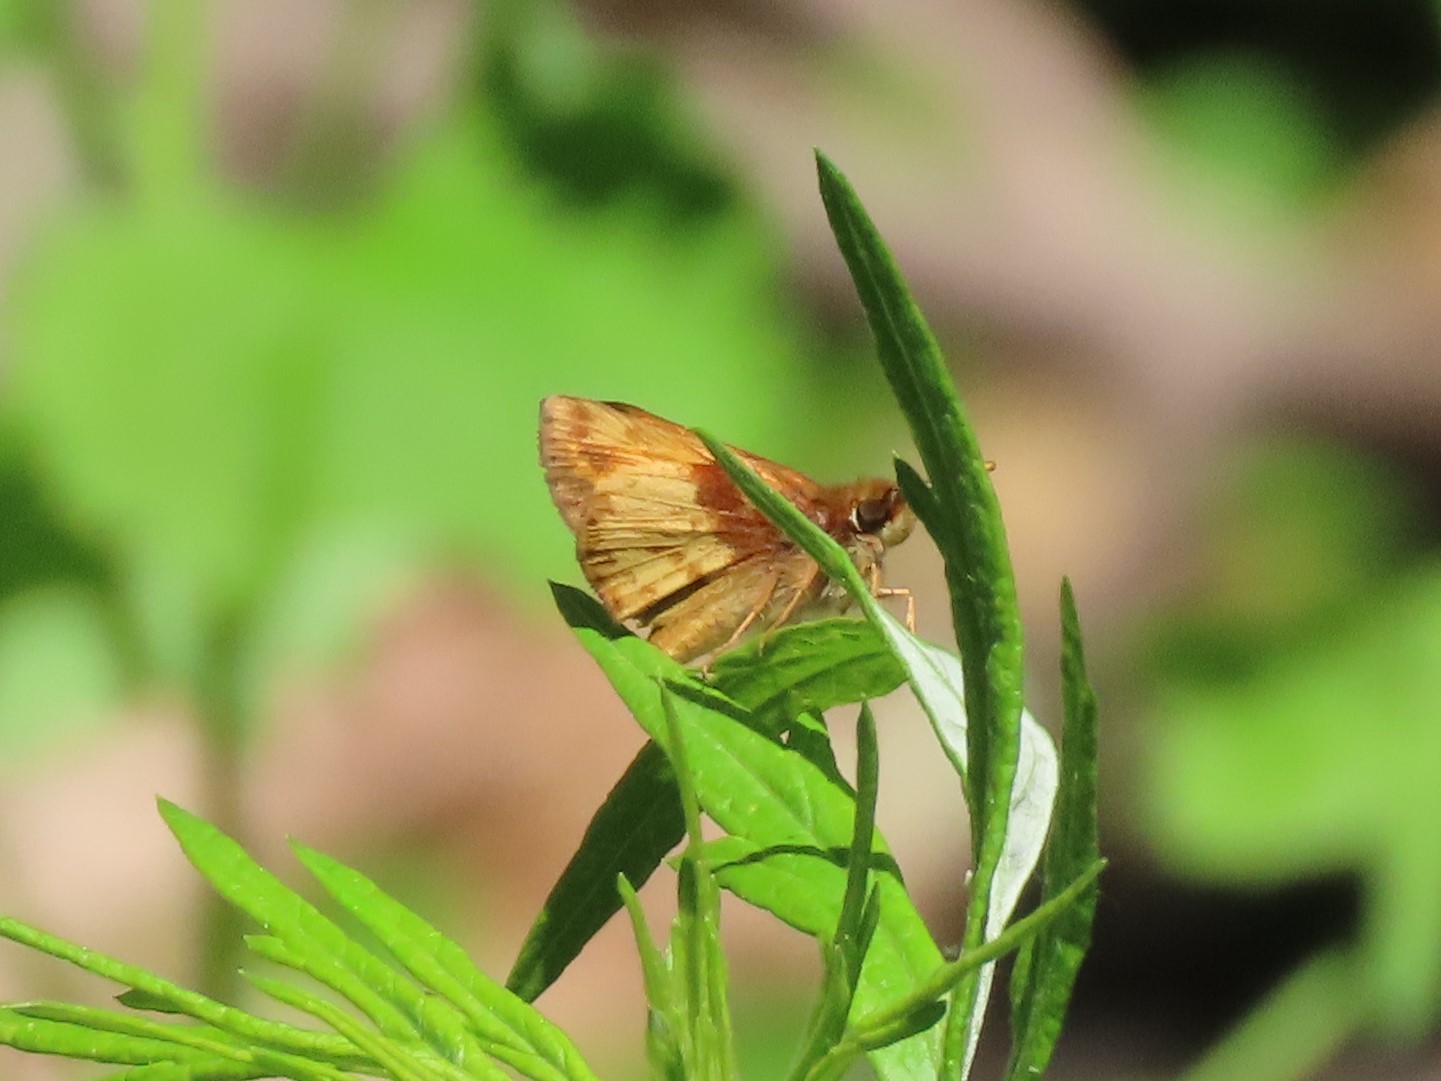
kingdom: Animalia
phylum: Arthropoda
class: Insecta
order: Lepidoptera
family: Hesperiidae
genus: Lon
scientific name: Lon zabulon
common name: Zabulon skipper
